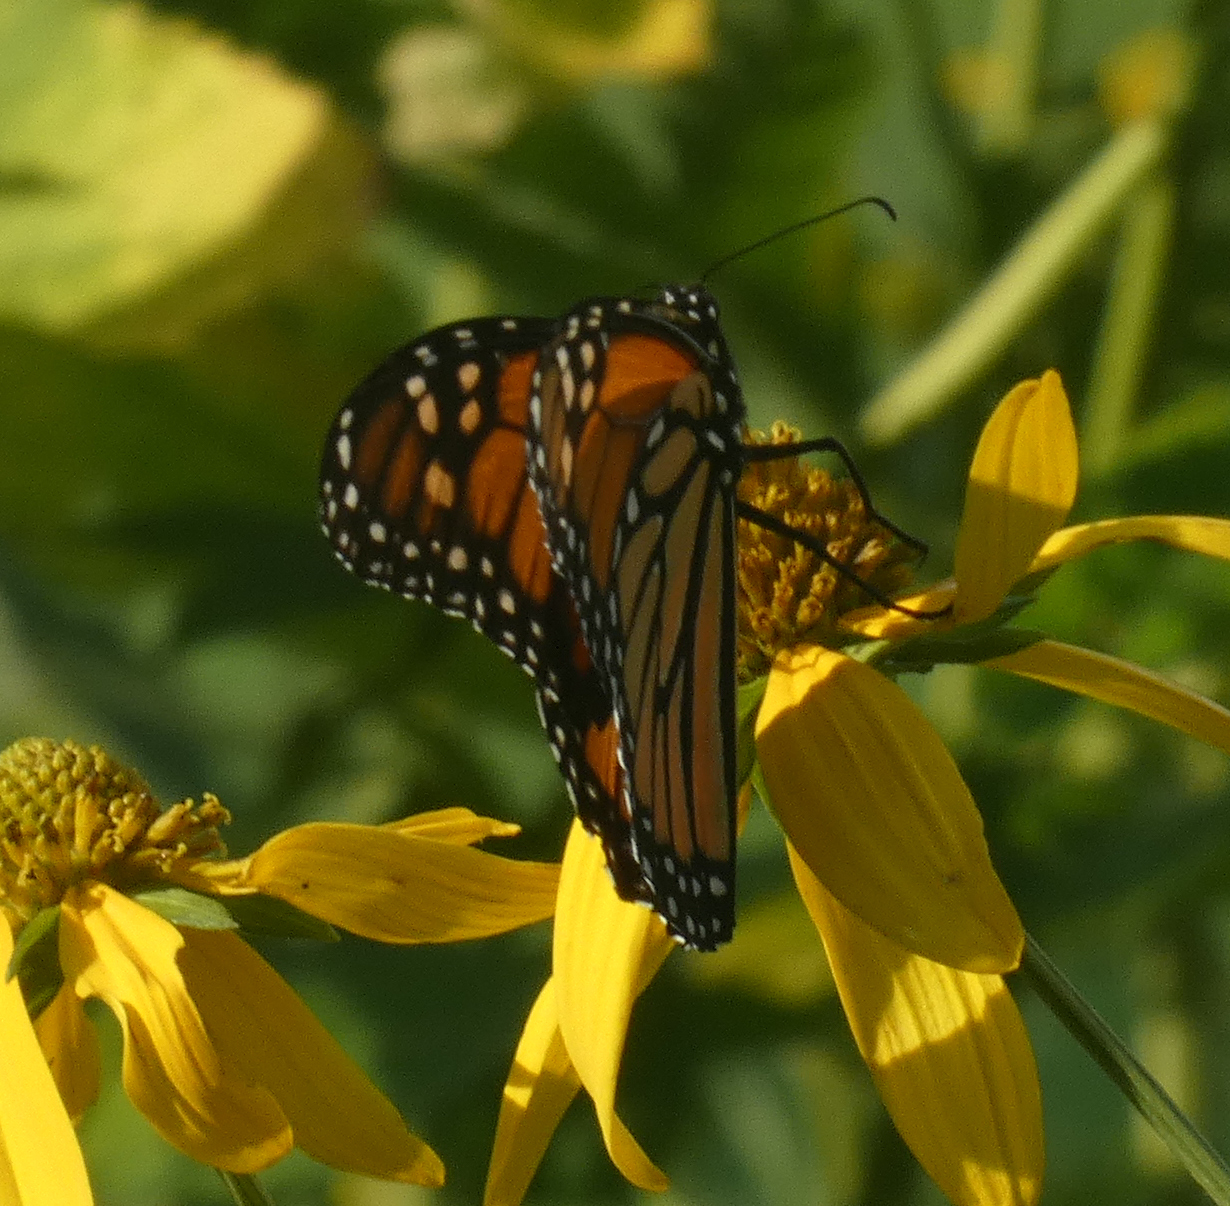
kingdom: Animalia
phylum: Arthropoda
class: Insecta
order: Lepidoptera
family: Nymphalidae
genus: Danaus
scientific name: Danaus plexippus
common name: Monarch
